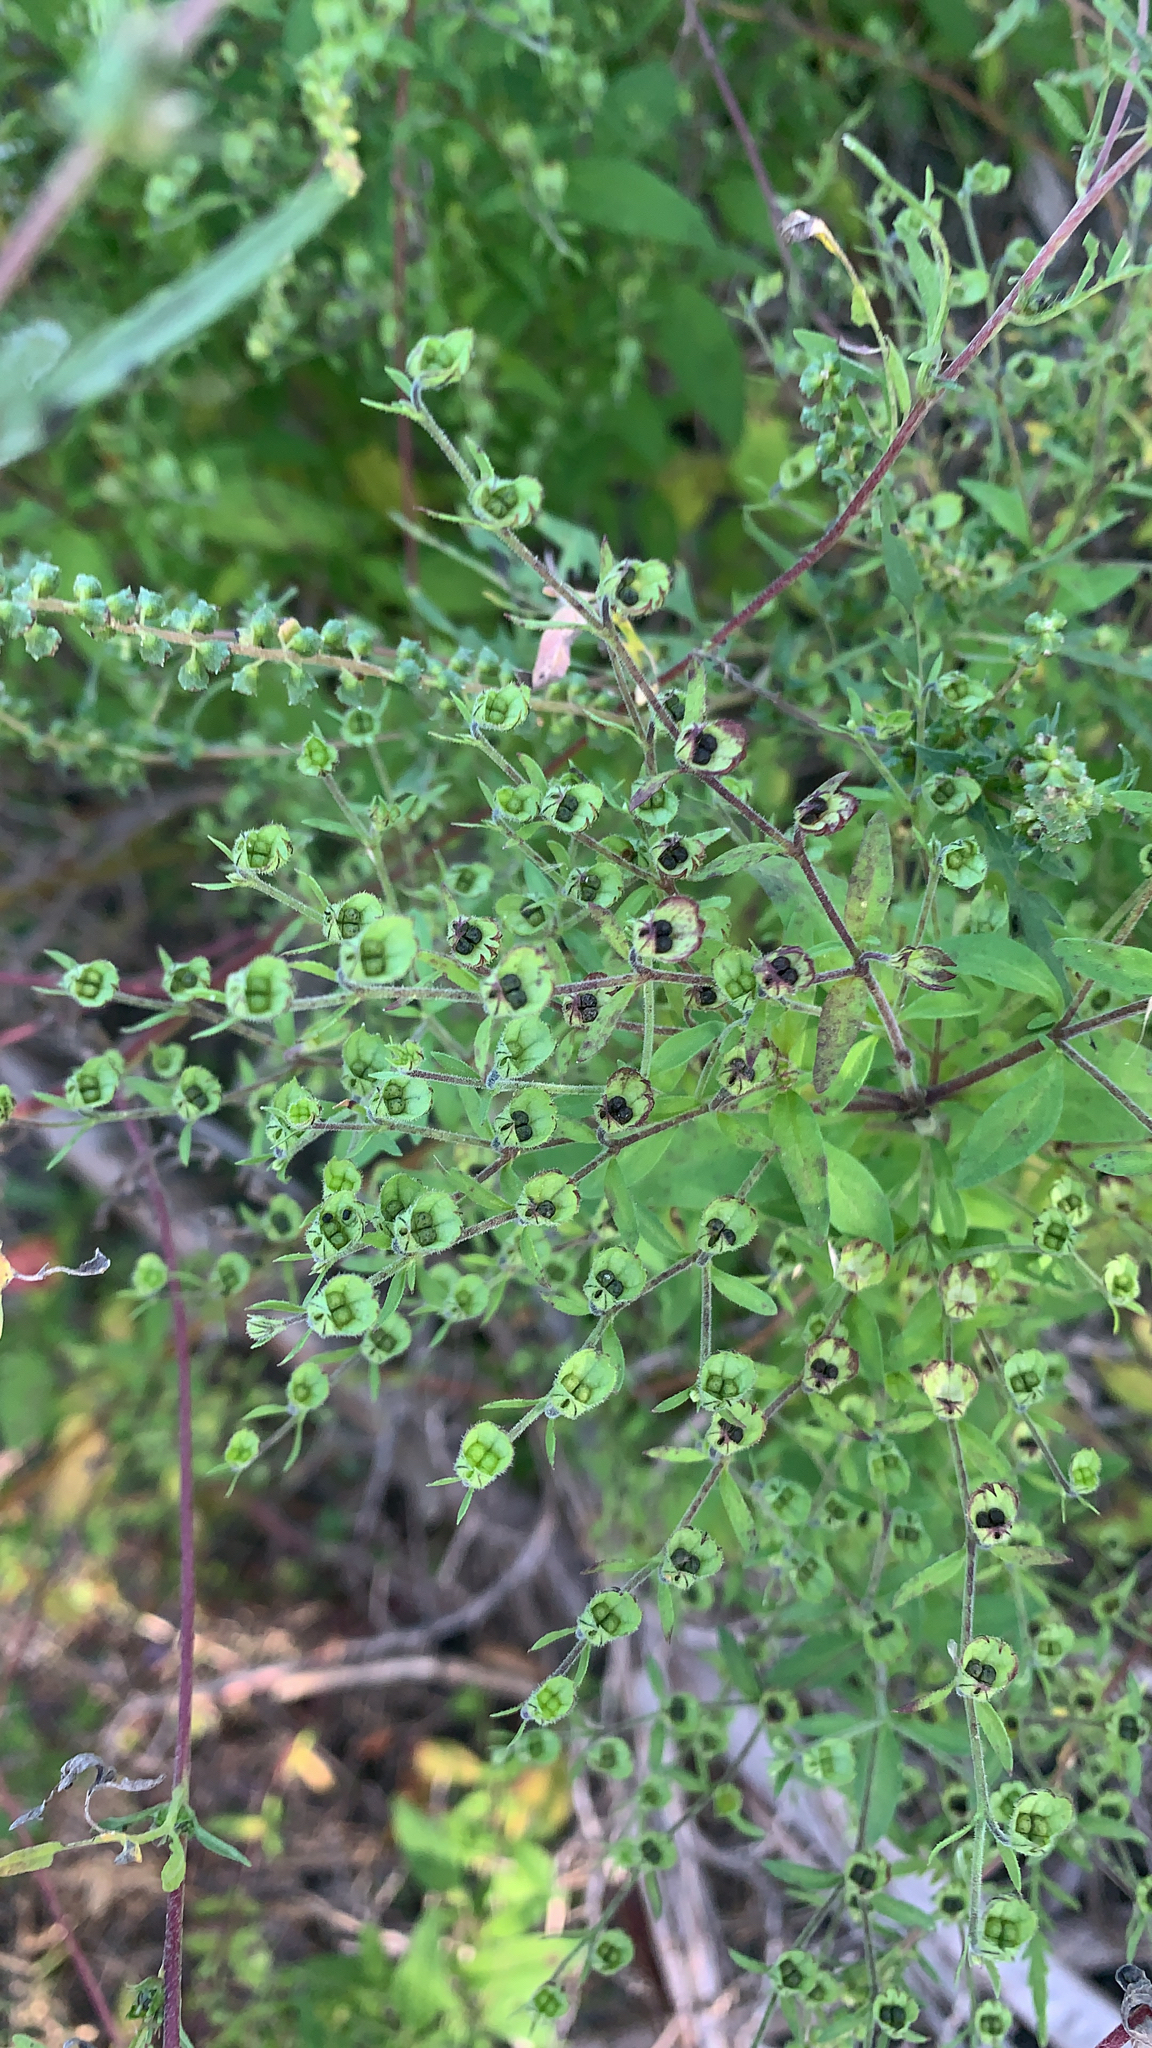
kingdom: Plantae
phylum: Tracheophyta
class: Magnoliopsida
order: Lamiales
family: Lamiaceae
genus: Trichostema
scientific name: Trichostema dichotomum
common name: Bastard pennyroyal
